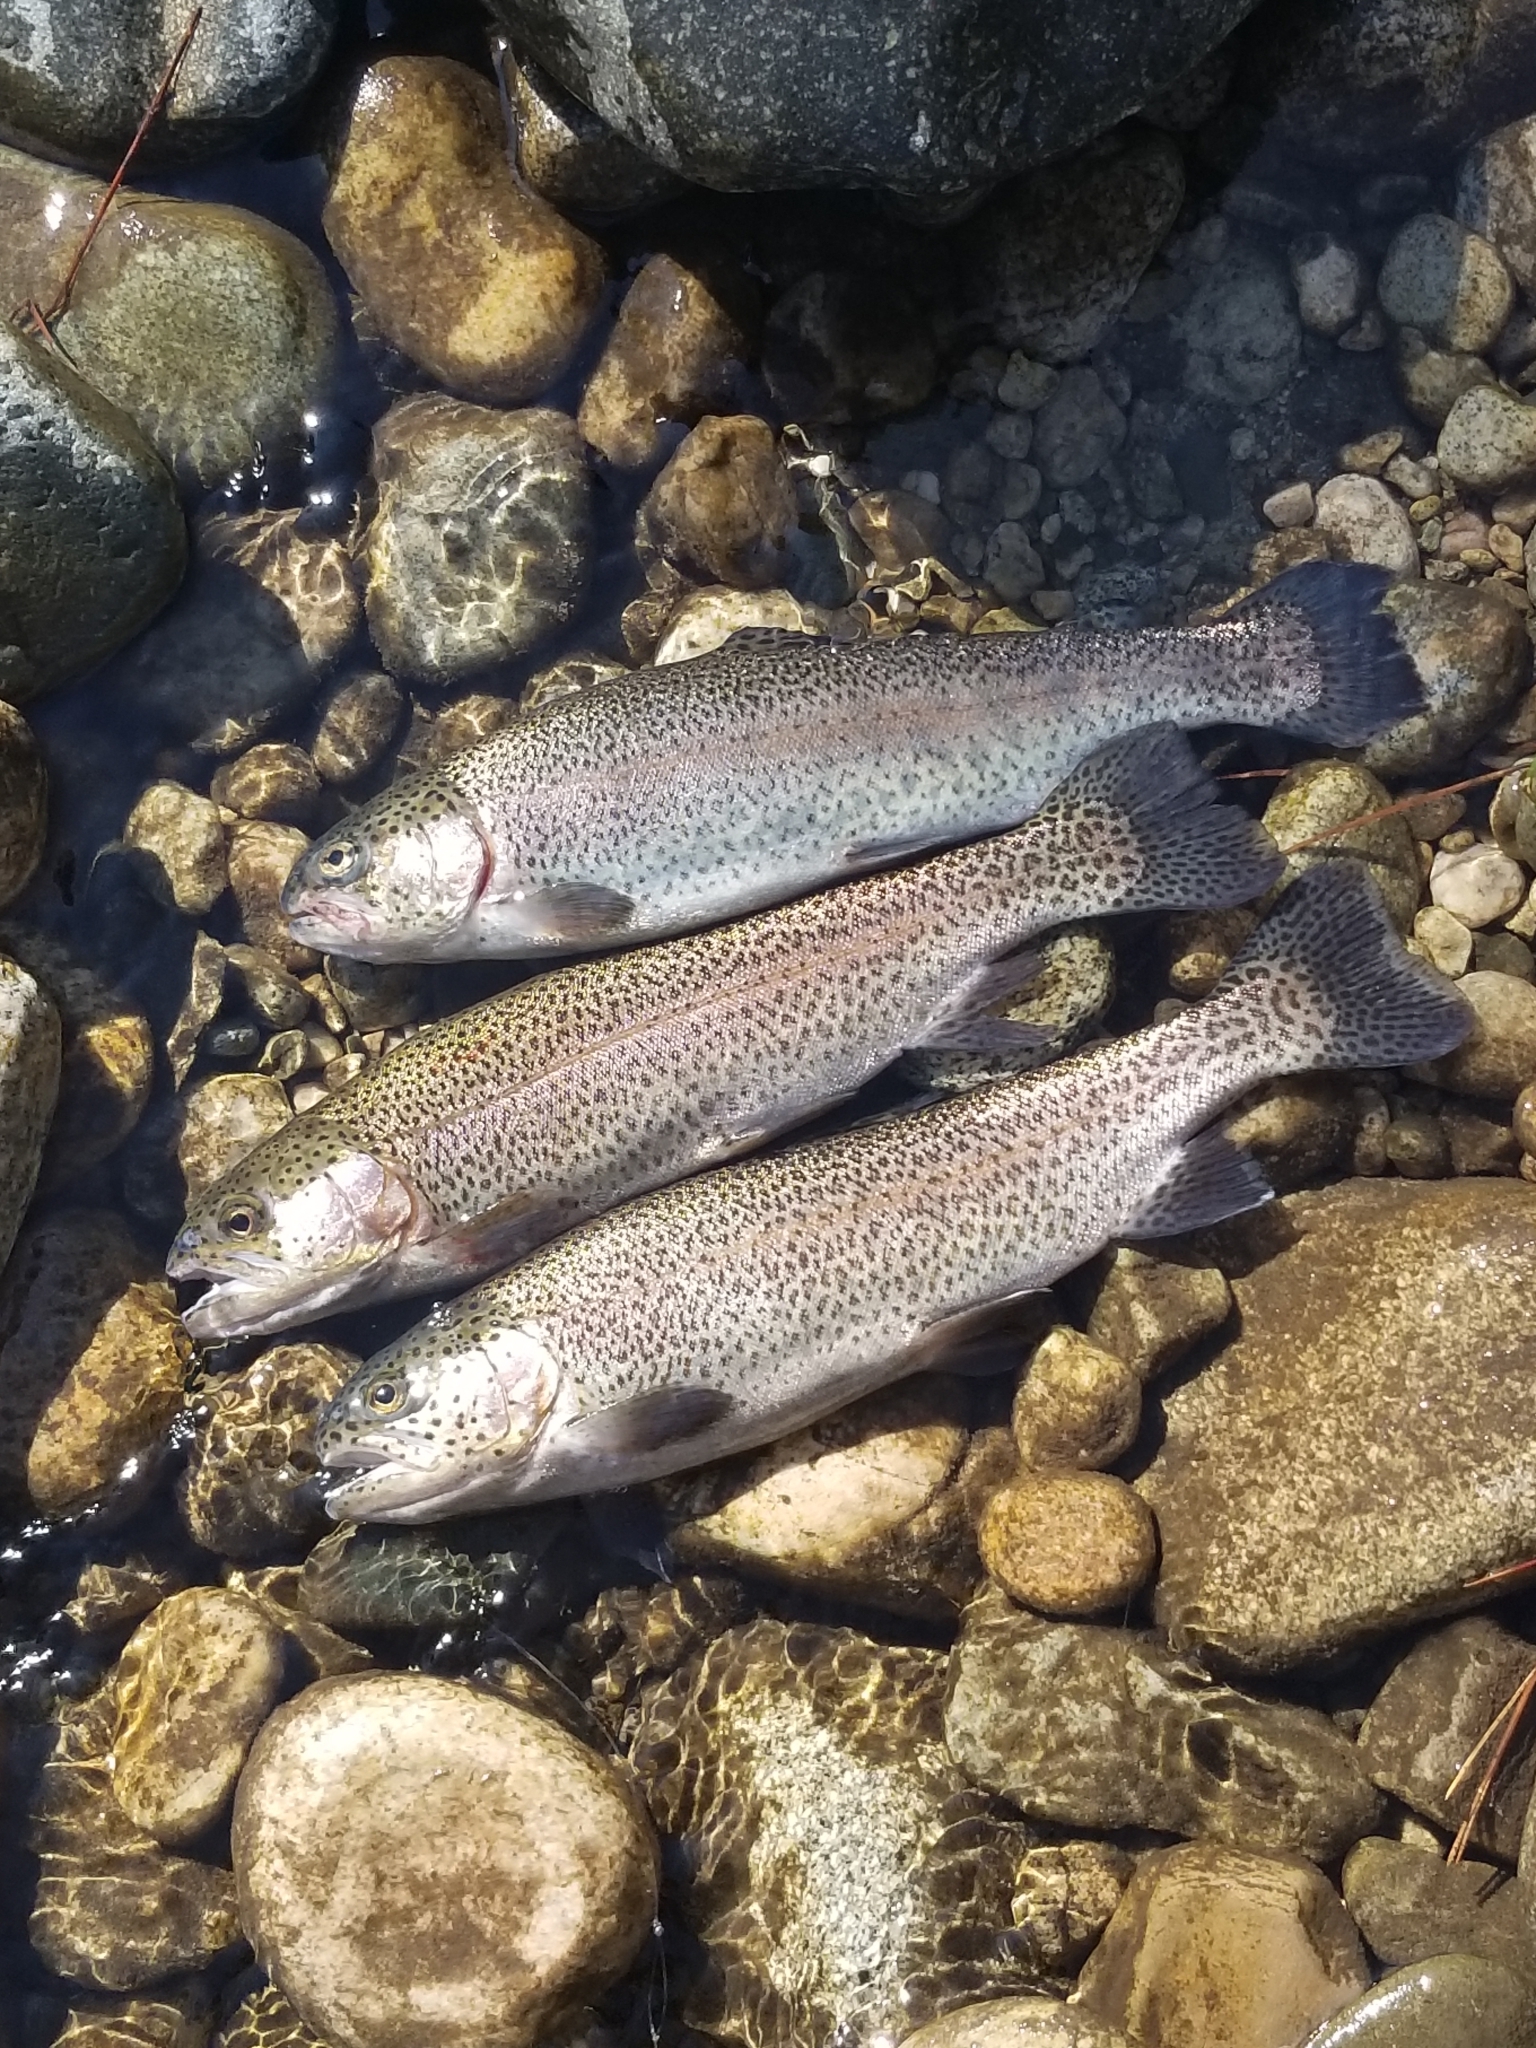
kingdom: Animalia
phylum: Chordata
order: Salmoniformes
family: Salmonidae
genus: Oncorhynchus
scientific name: Oncorhynchus mykiss
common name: Rainbow trout
